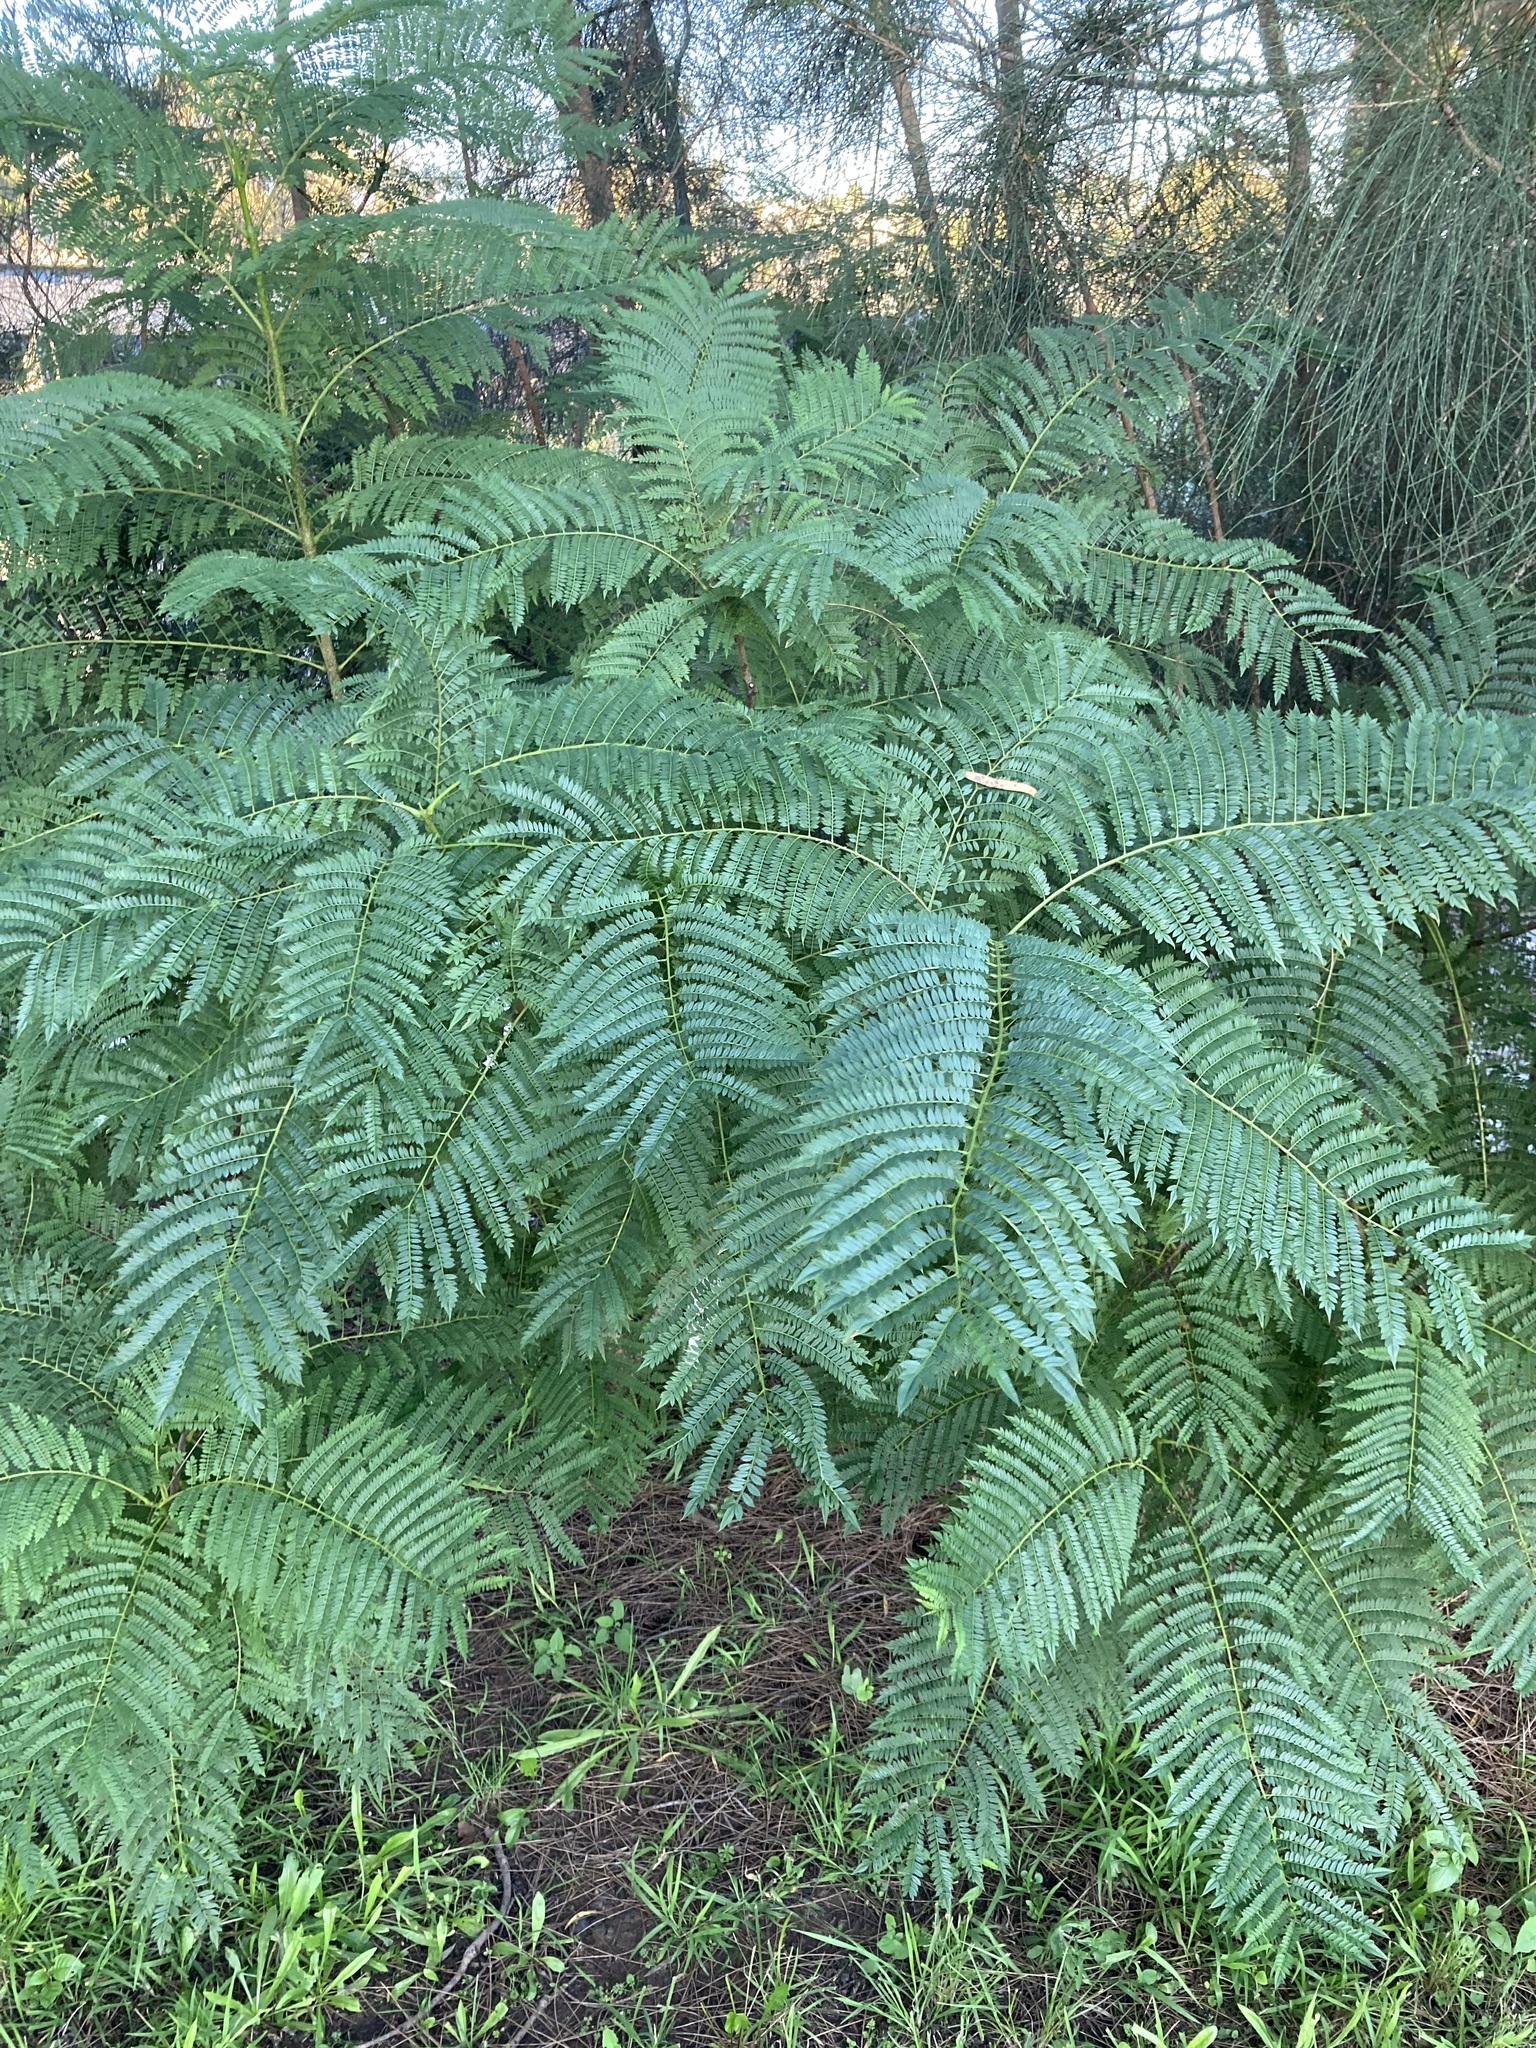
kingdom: Plantae
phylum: Tracheophyta
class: Magnoliopsida
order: Lamiales
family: Bignoniaceae
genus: Jacaranda
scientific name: Jacaranda mimosifolia
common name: Black poui
